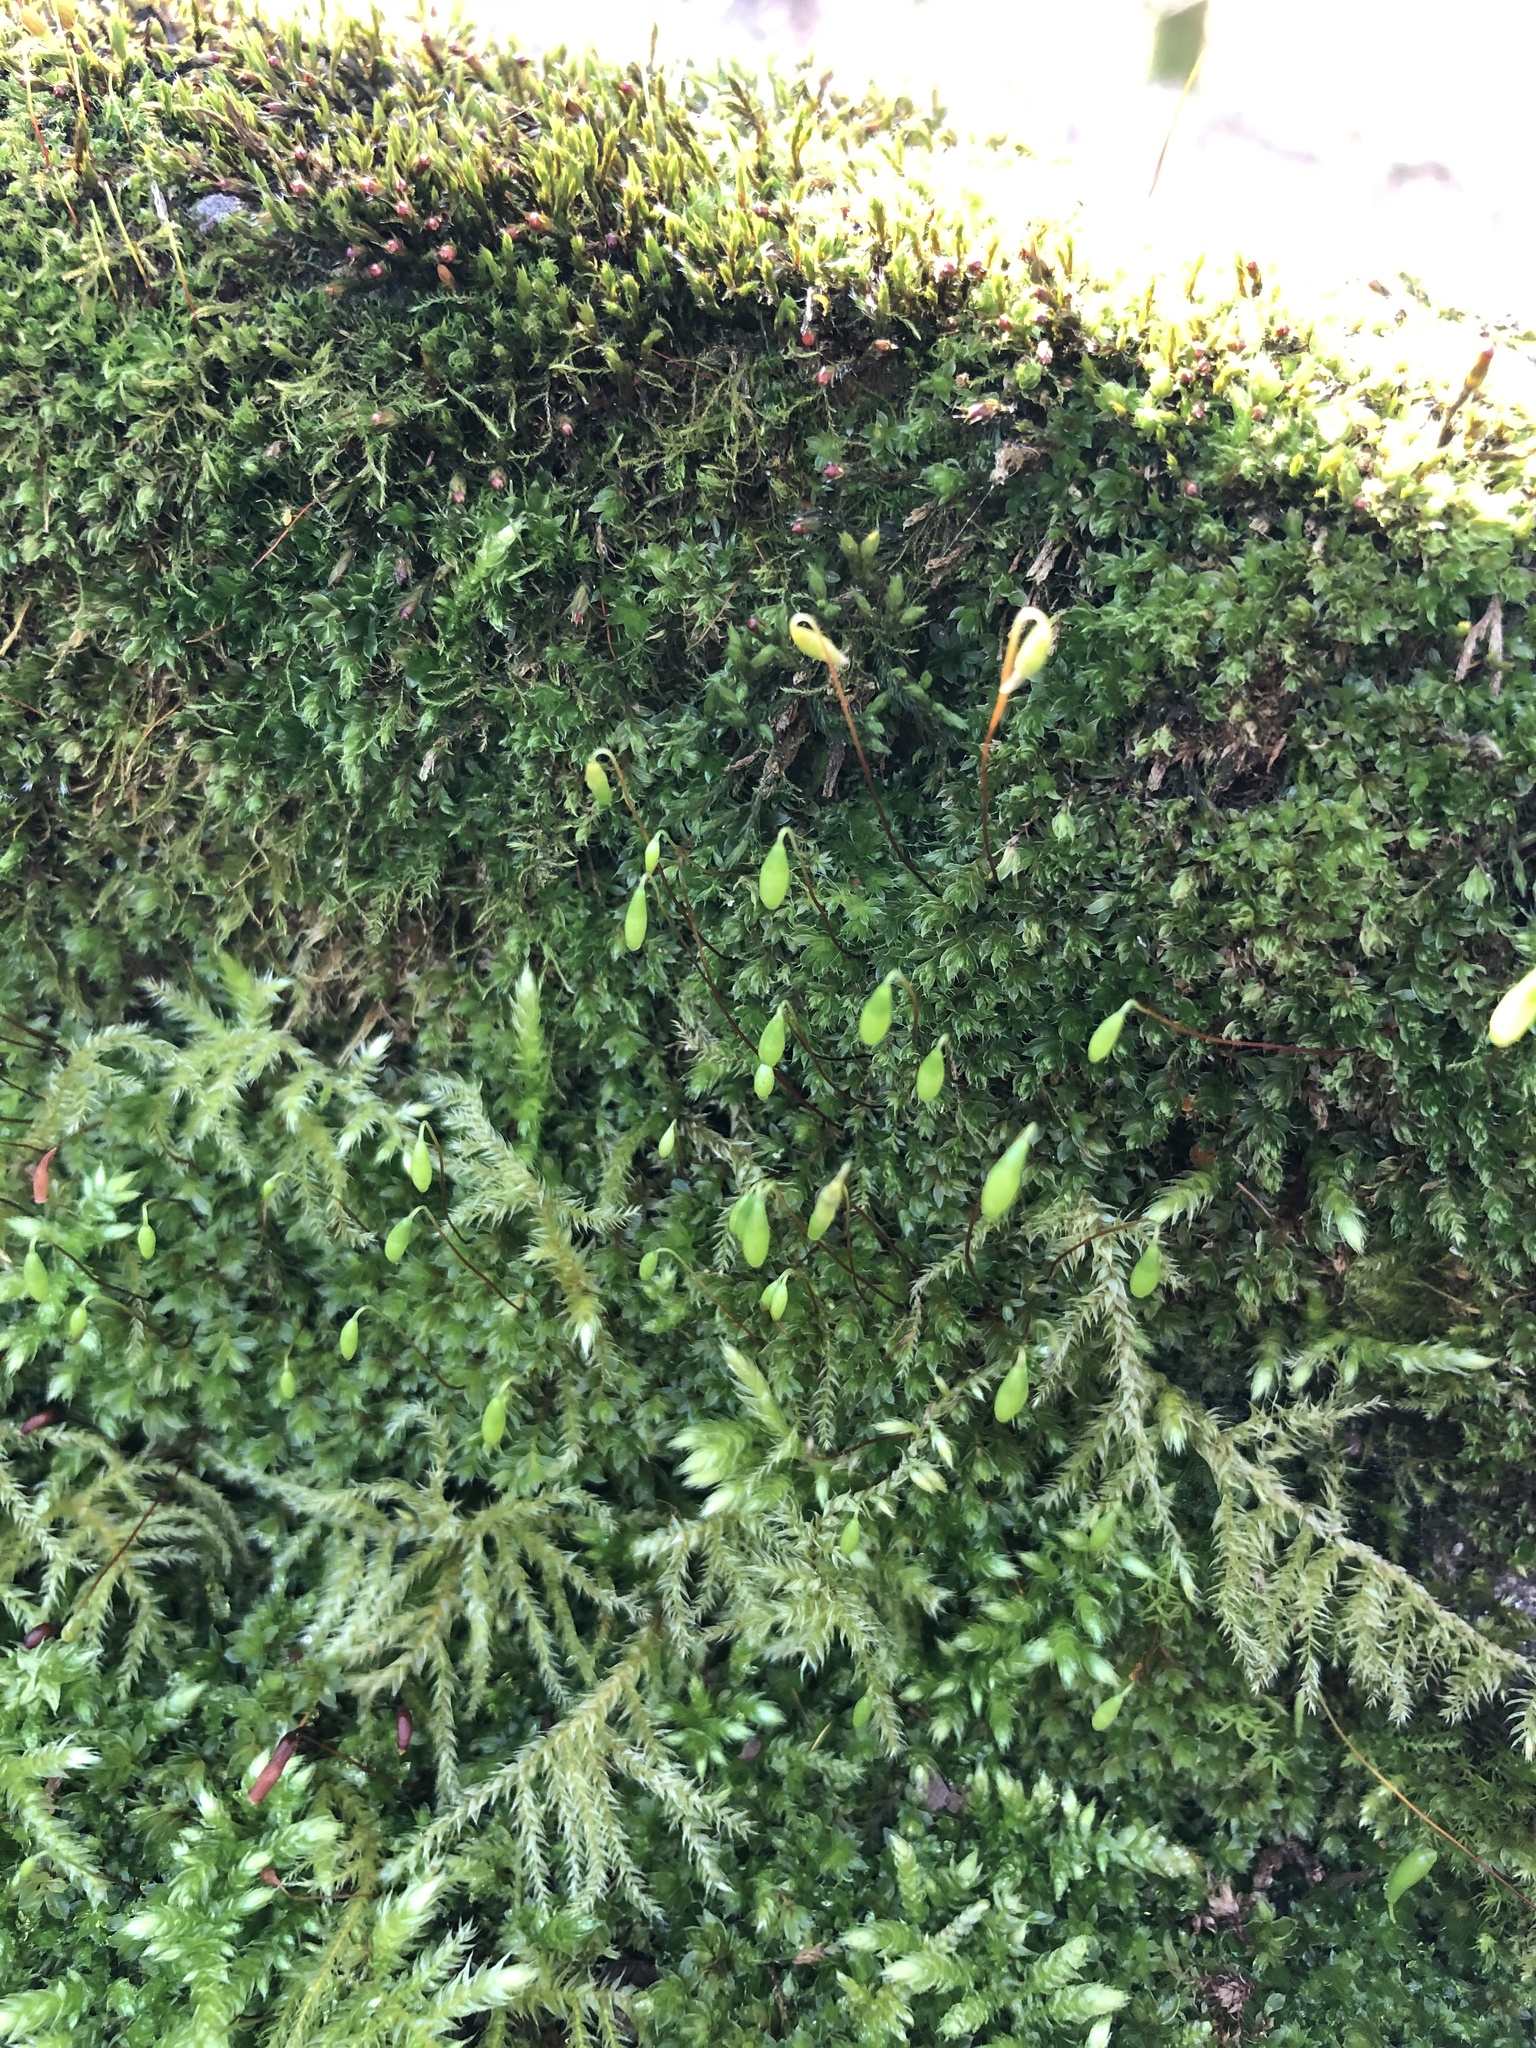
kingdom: Plantae
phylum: Bryophyta
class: Bryopsida
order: Bryales
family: Bryaceae
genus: Rosulabryum
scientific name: Rosulabryum capillare
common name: Capillary thread-moss
